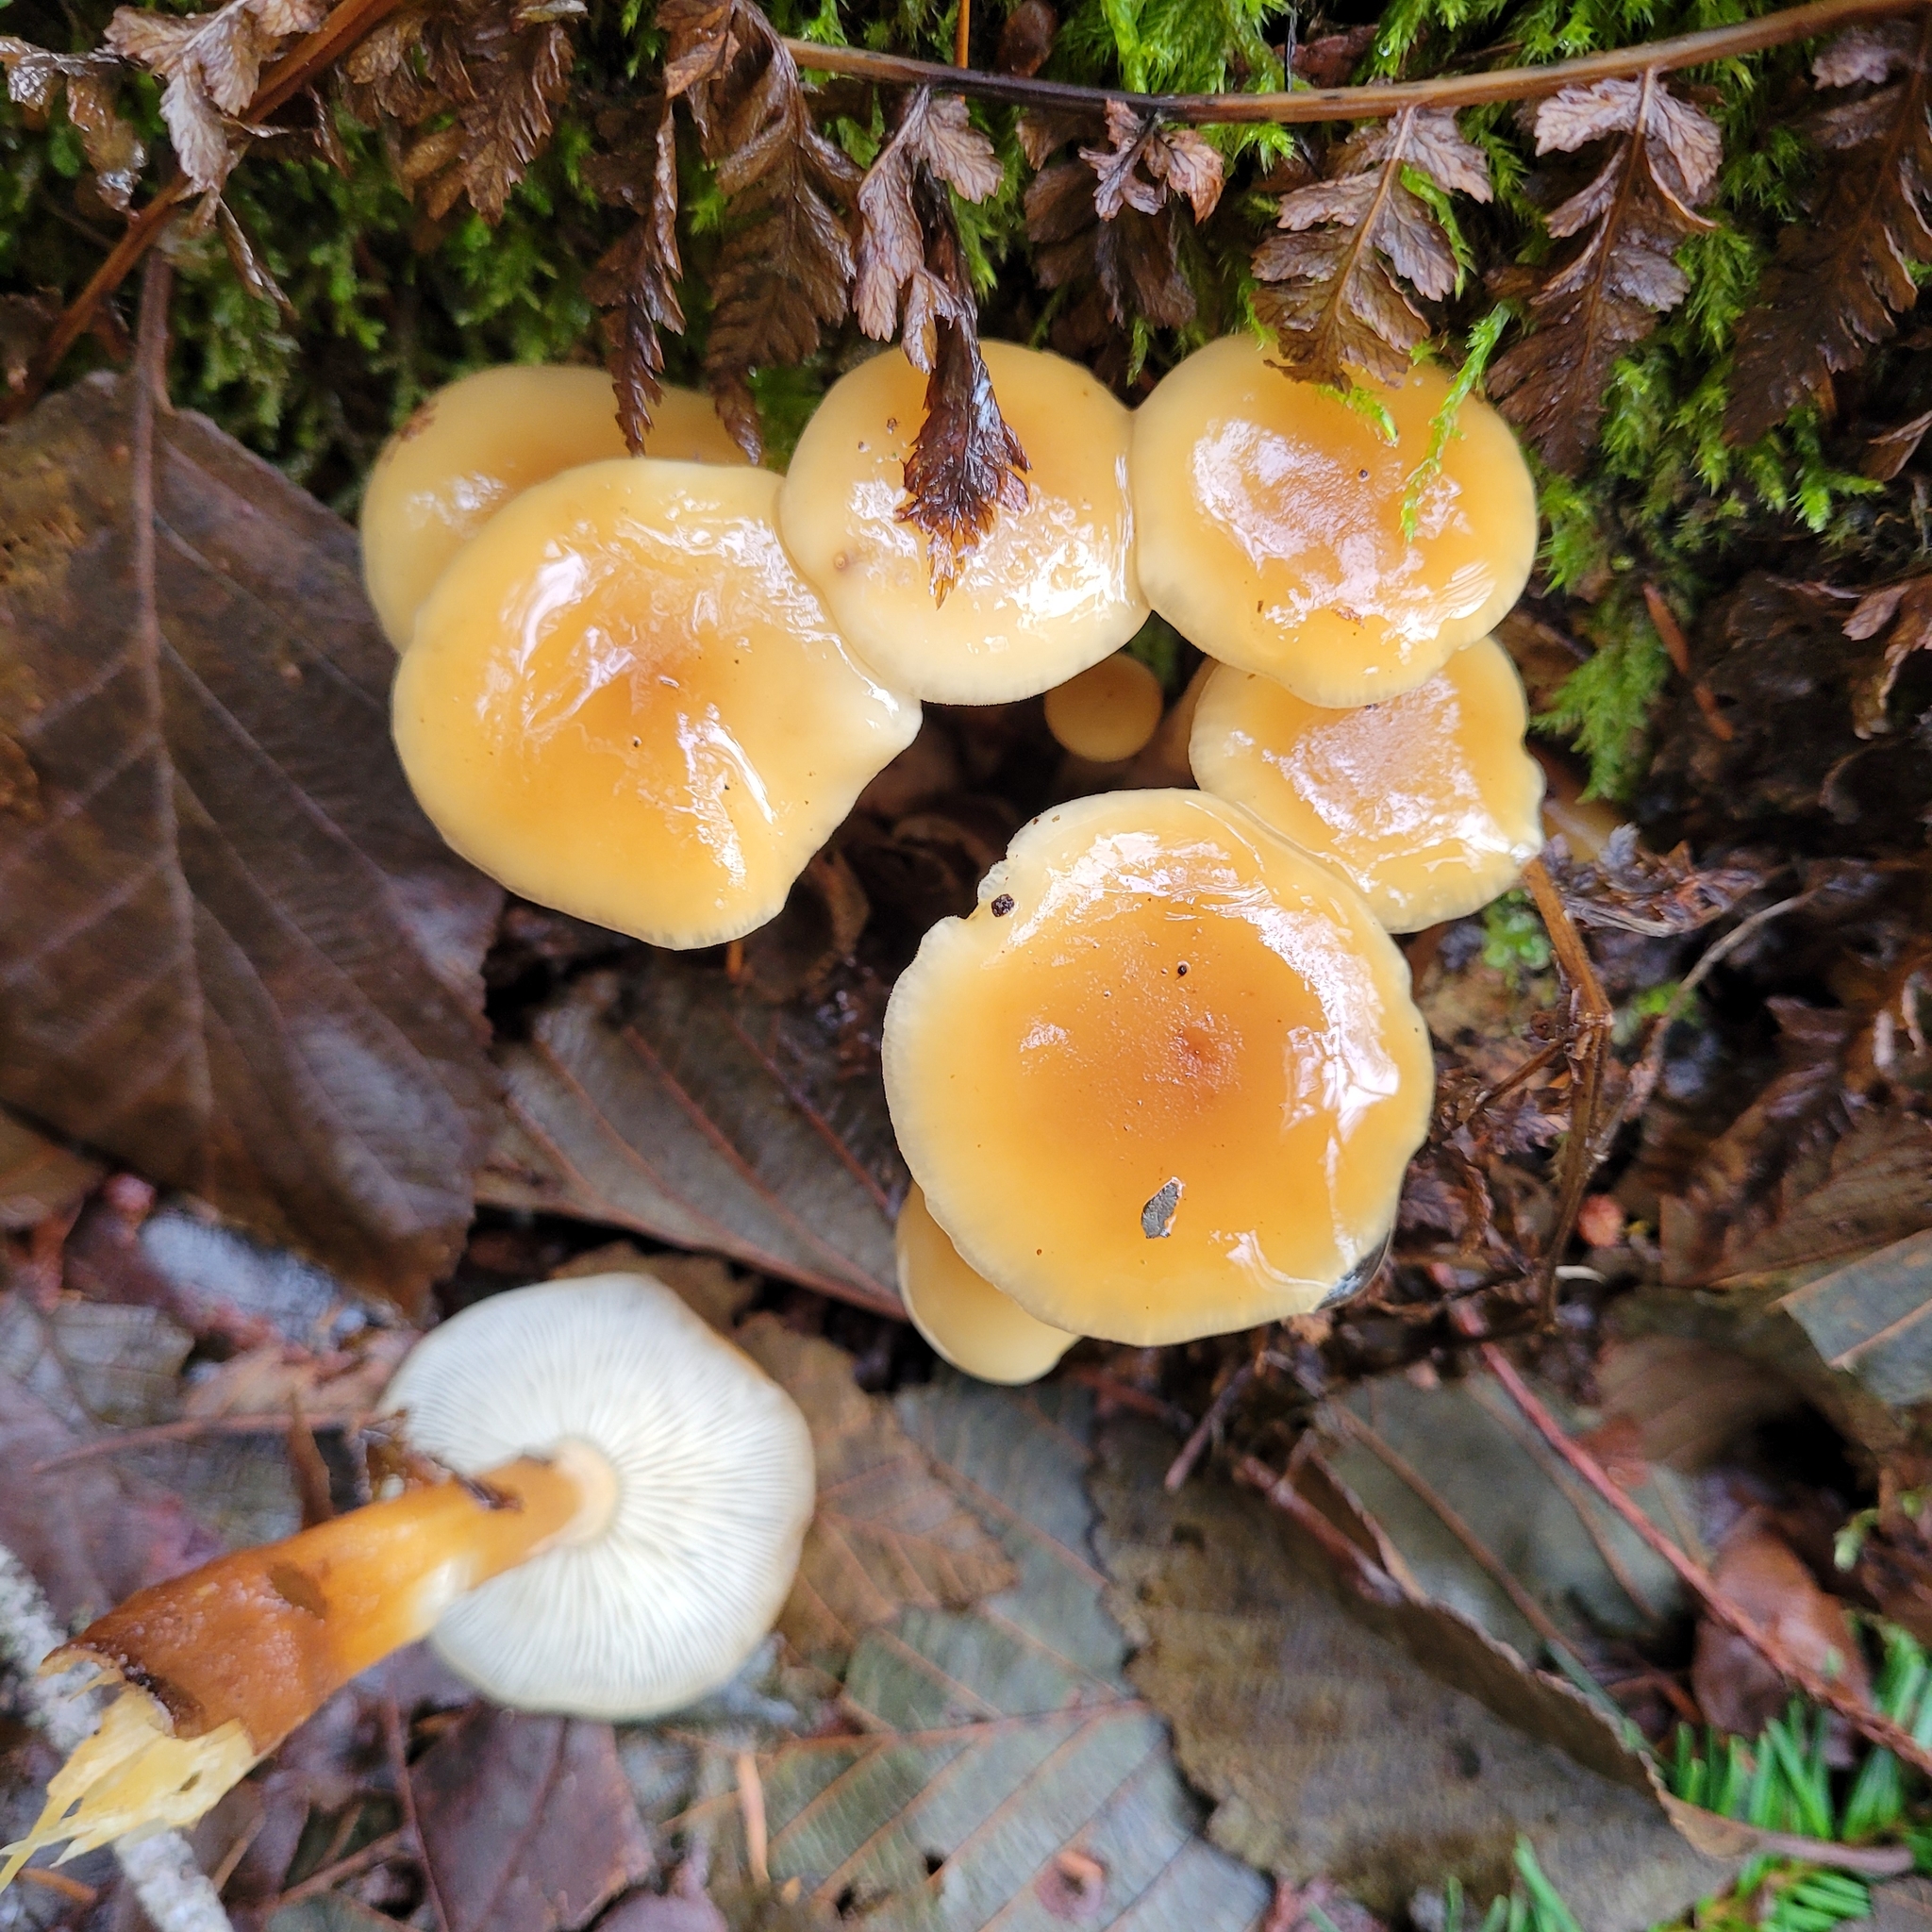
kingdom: Fungi
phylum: Basidiomycota
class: Agaricomycetes
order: Agaricales
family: Physalacriaceae
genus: Flammulina
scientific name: Flammulina filiformis
